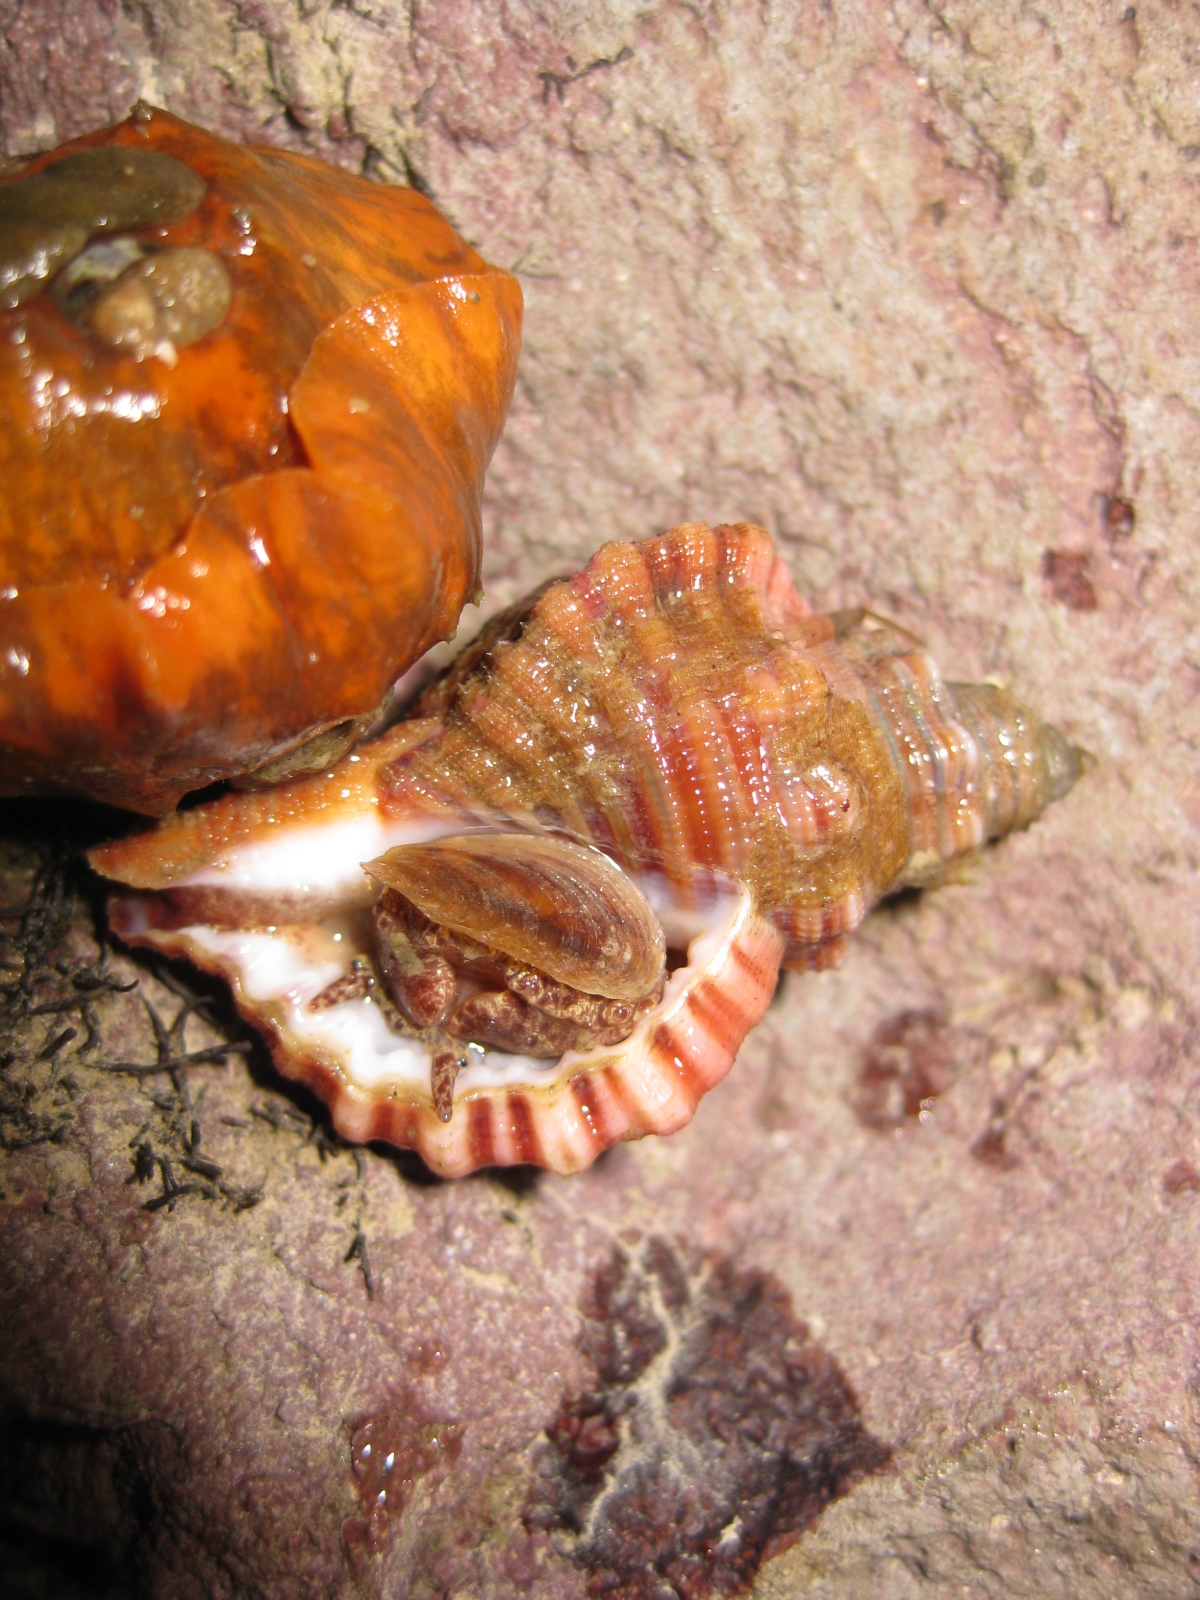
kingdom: Animalia
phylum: Mollusca
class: Gastropoda
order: Littorinimorpha
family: Cymatiidae
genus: Cabestana
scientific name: Cabestana spengleri
